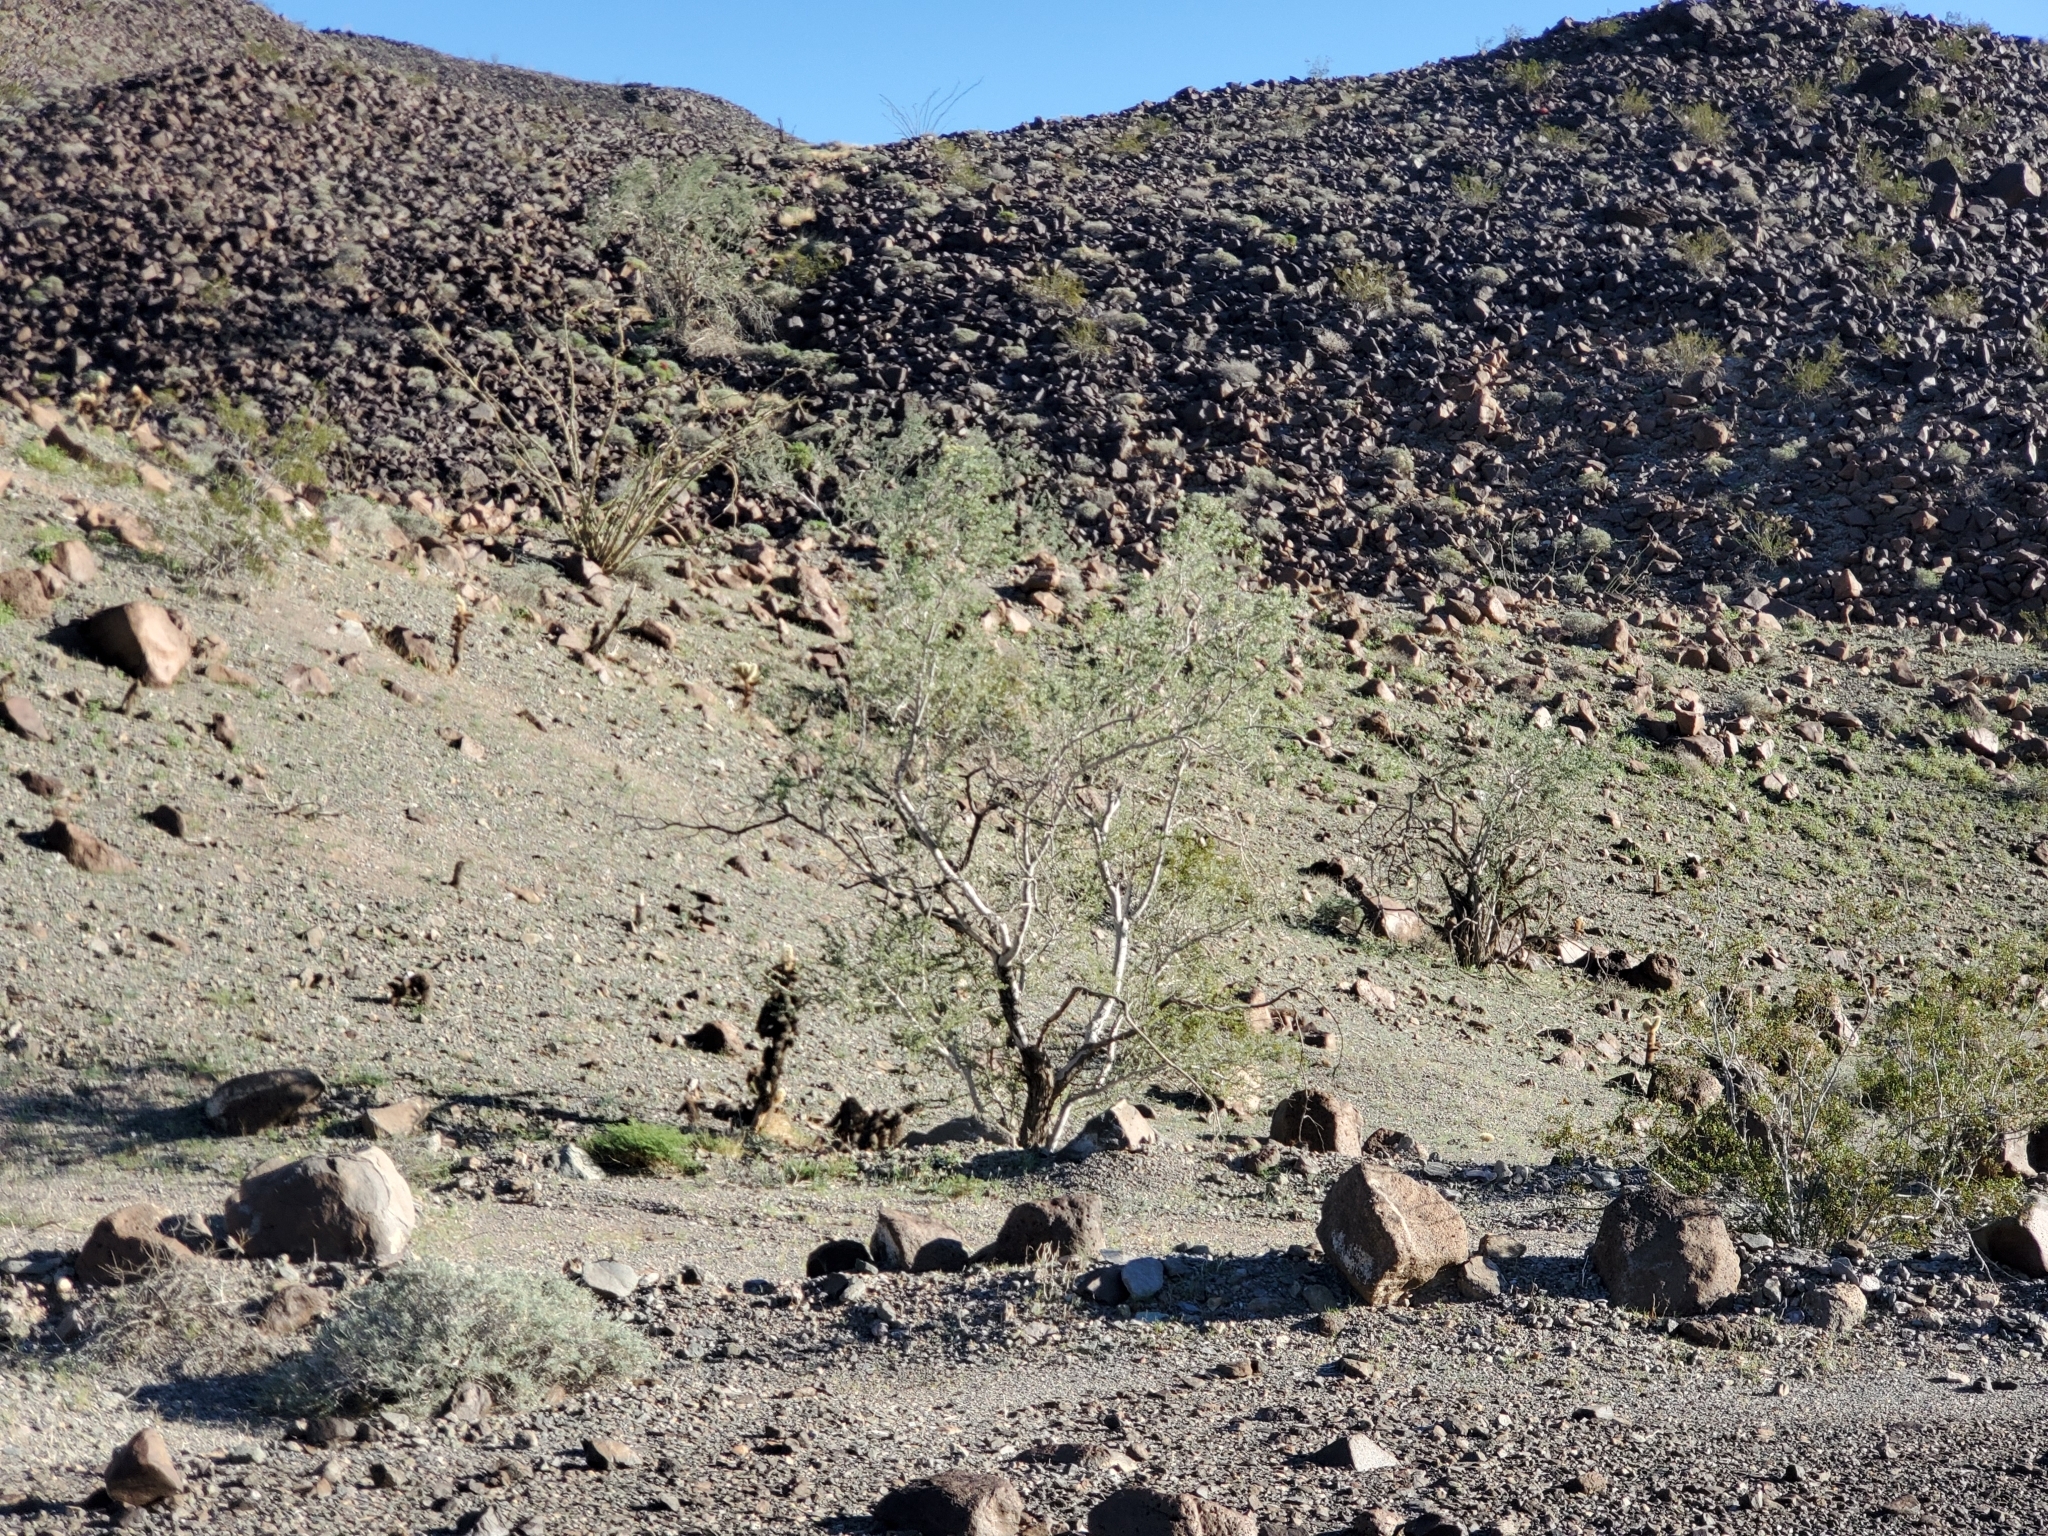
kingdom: Plantae
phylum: Tracheophyta
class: Magnoliopsida
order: Fabales
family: Fabaceae
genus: Olneya
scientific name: Olneya tesota
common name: Desert ironwood
